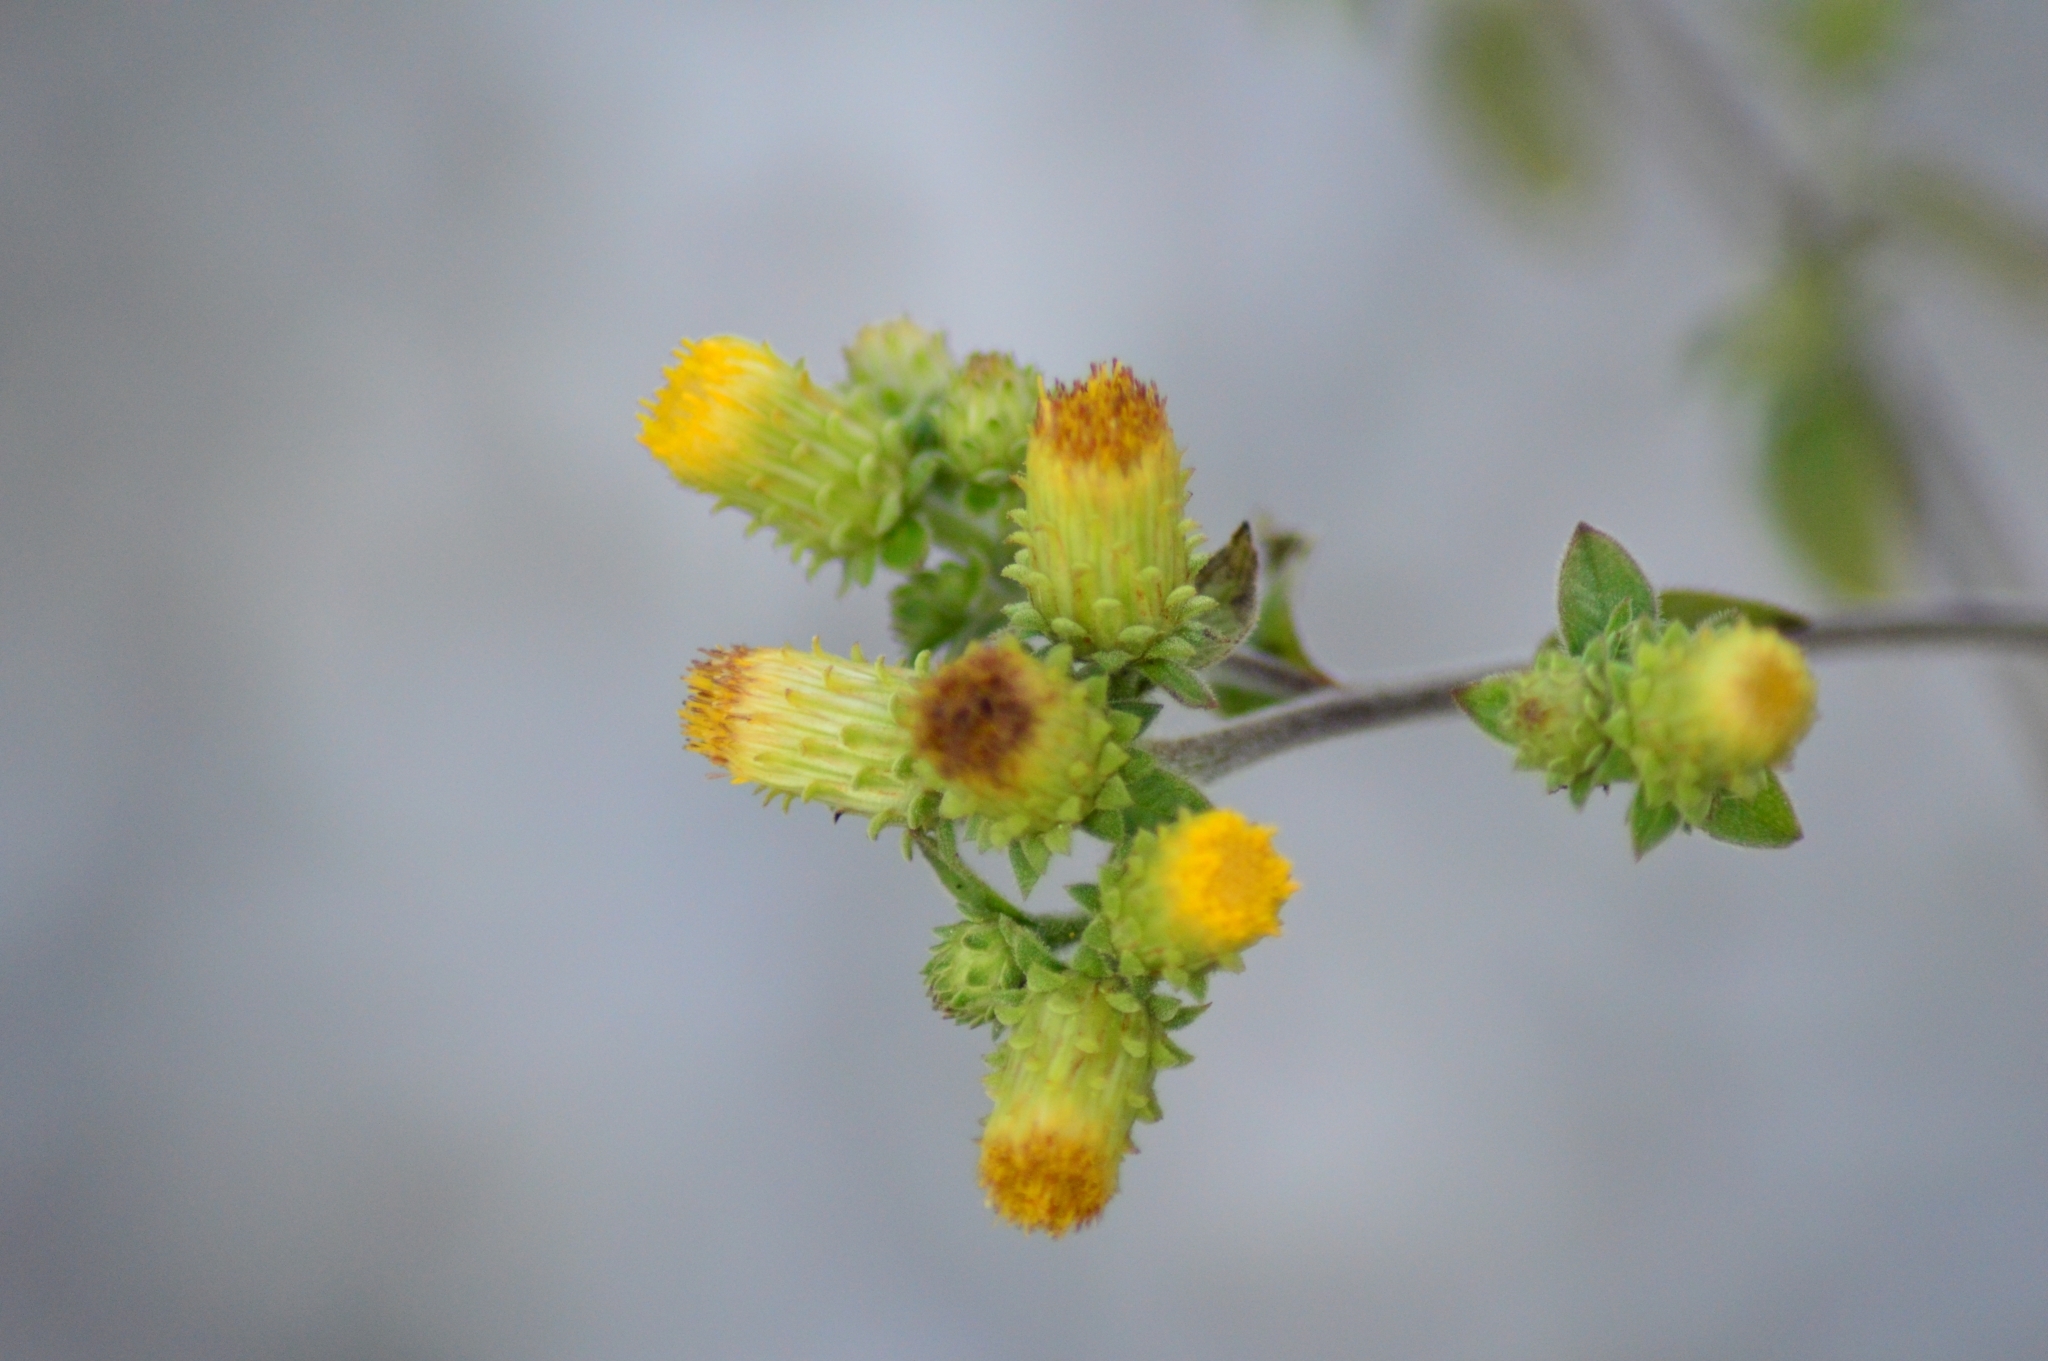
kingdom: Plantae
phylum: Tracheophyta
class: Magnoliopsida
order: Asterales
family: Asteraceae
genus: Pentanema
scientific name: Pentanema squarrosum
